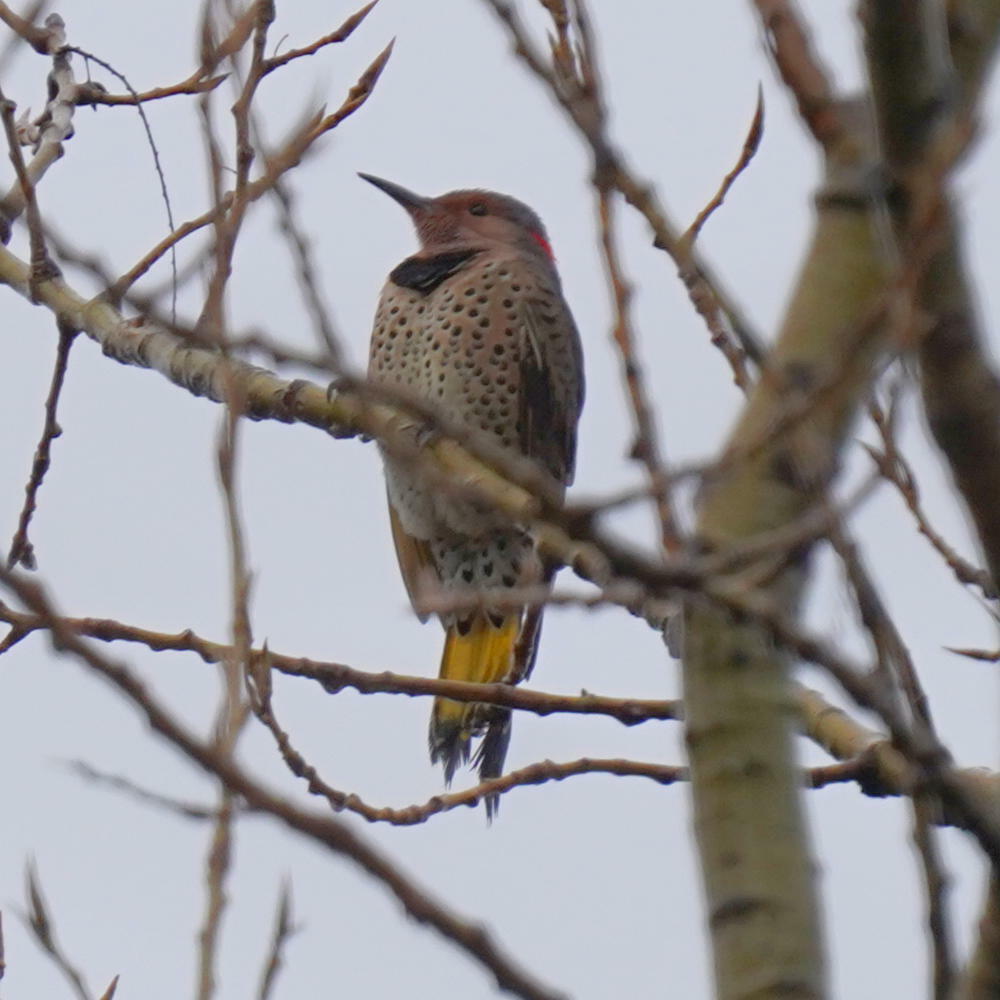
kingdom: Animalia
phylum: Chordata
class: Aves
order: Piciformes
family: Picidae
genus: Colaptes
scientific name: Colaptes auratus
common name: Northern flicker
